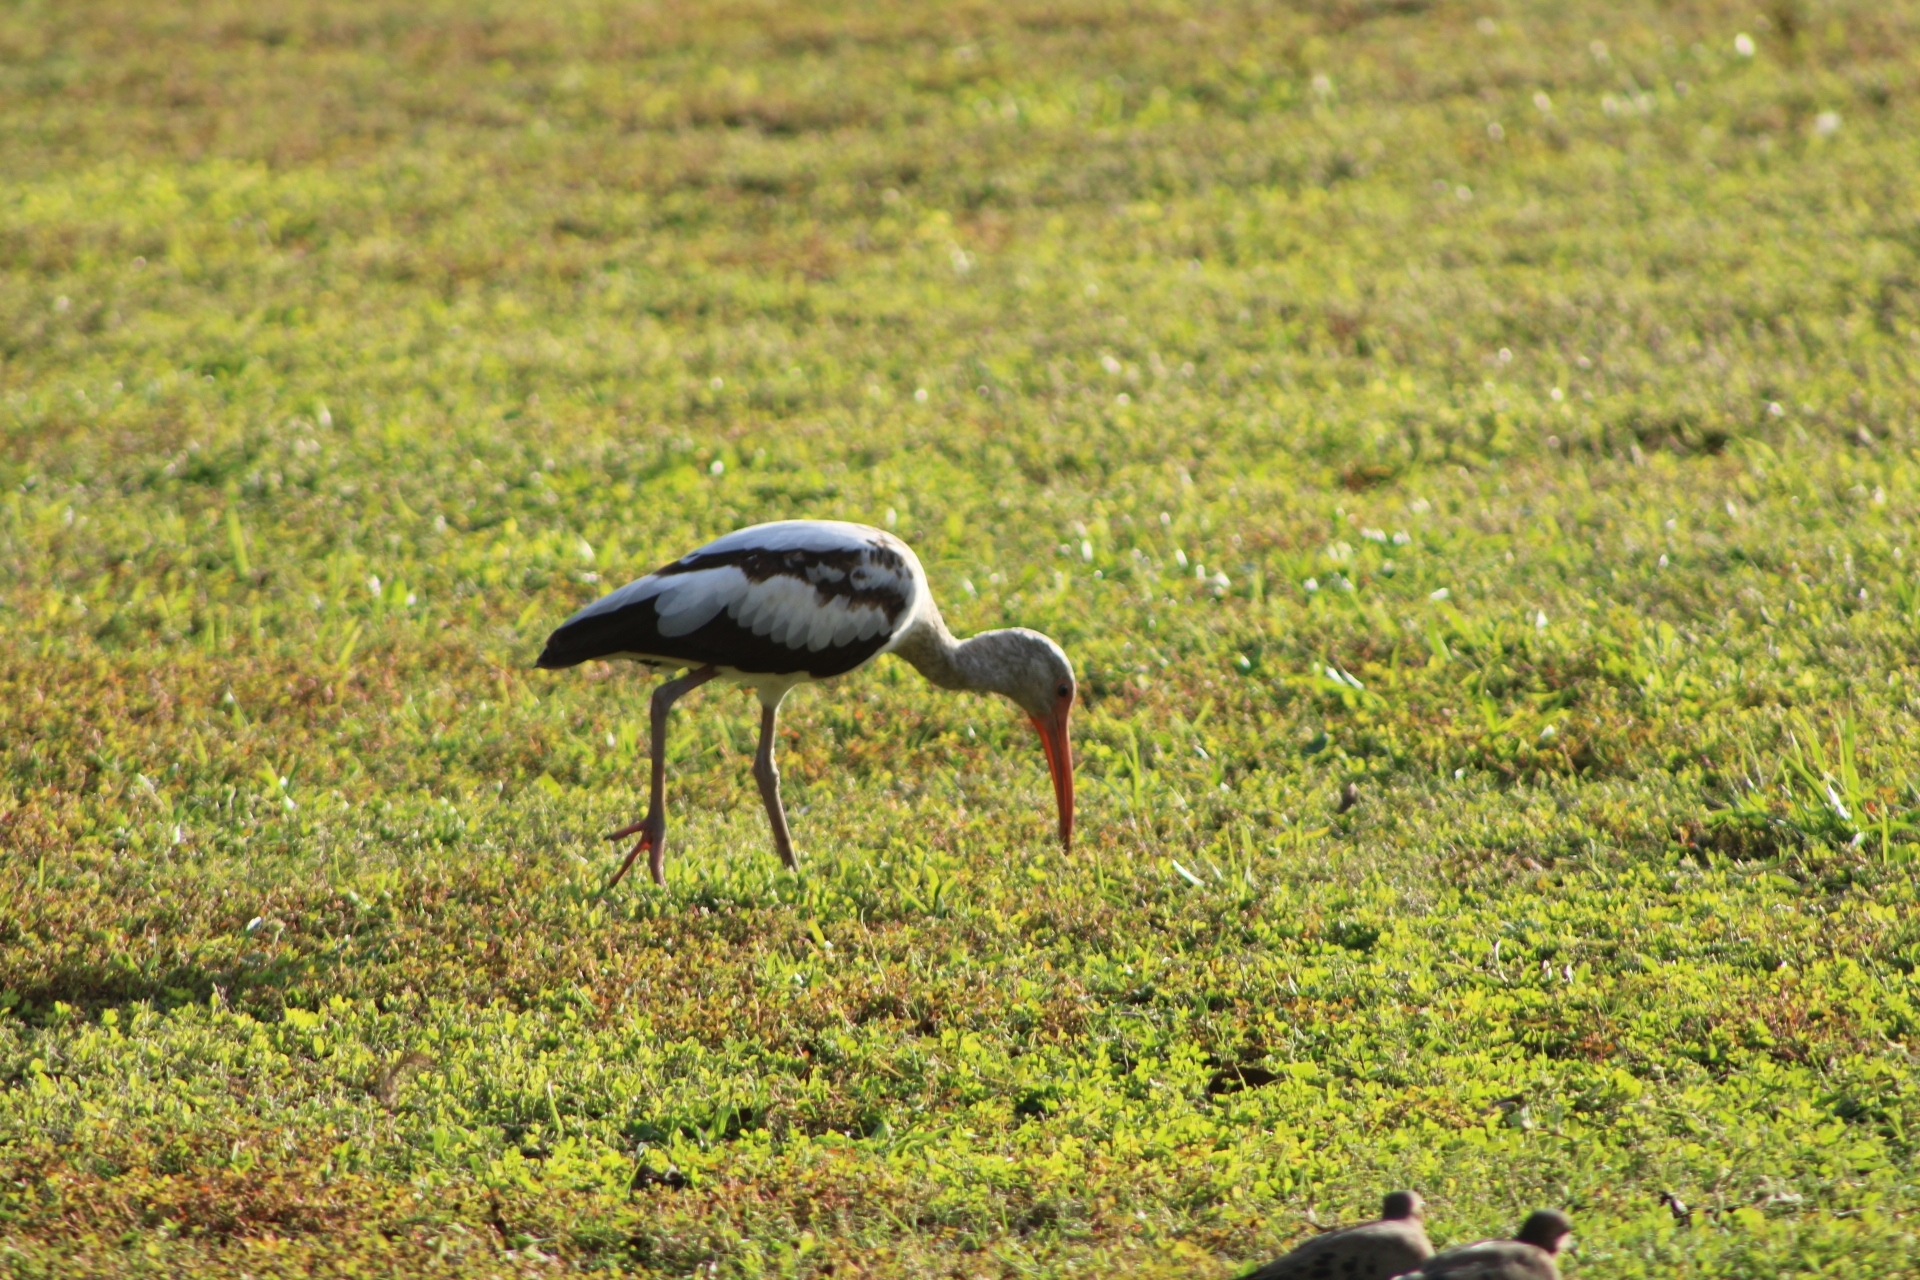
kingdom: Animalia
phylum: Chordata
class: Aves
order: Pelecaniformes
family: Threskiornithidae
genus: Eudocimus
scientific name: Eudocimus albus
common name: White ibis
